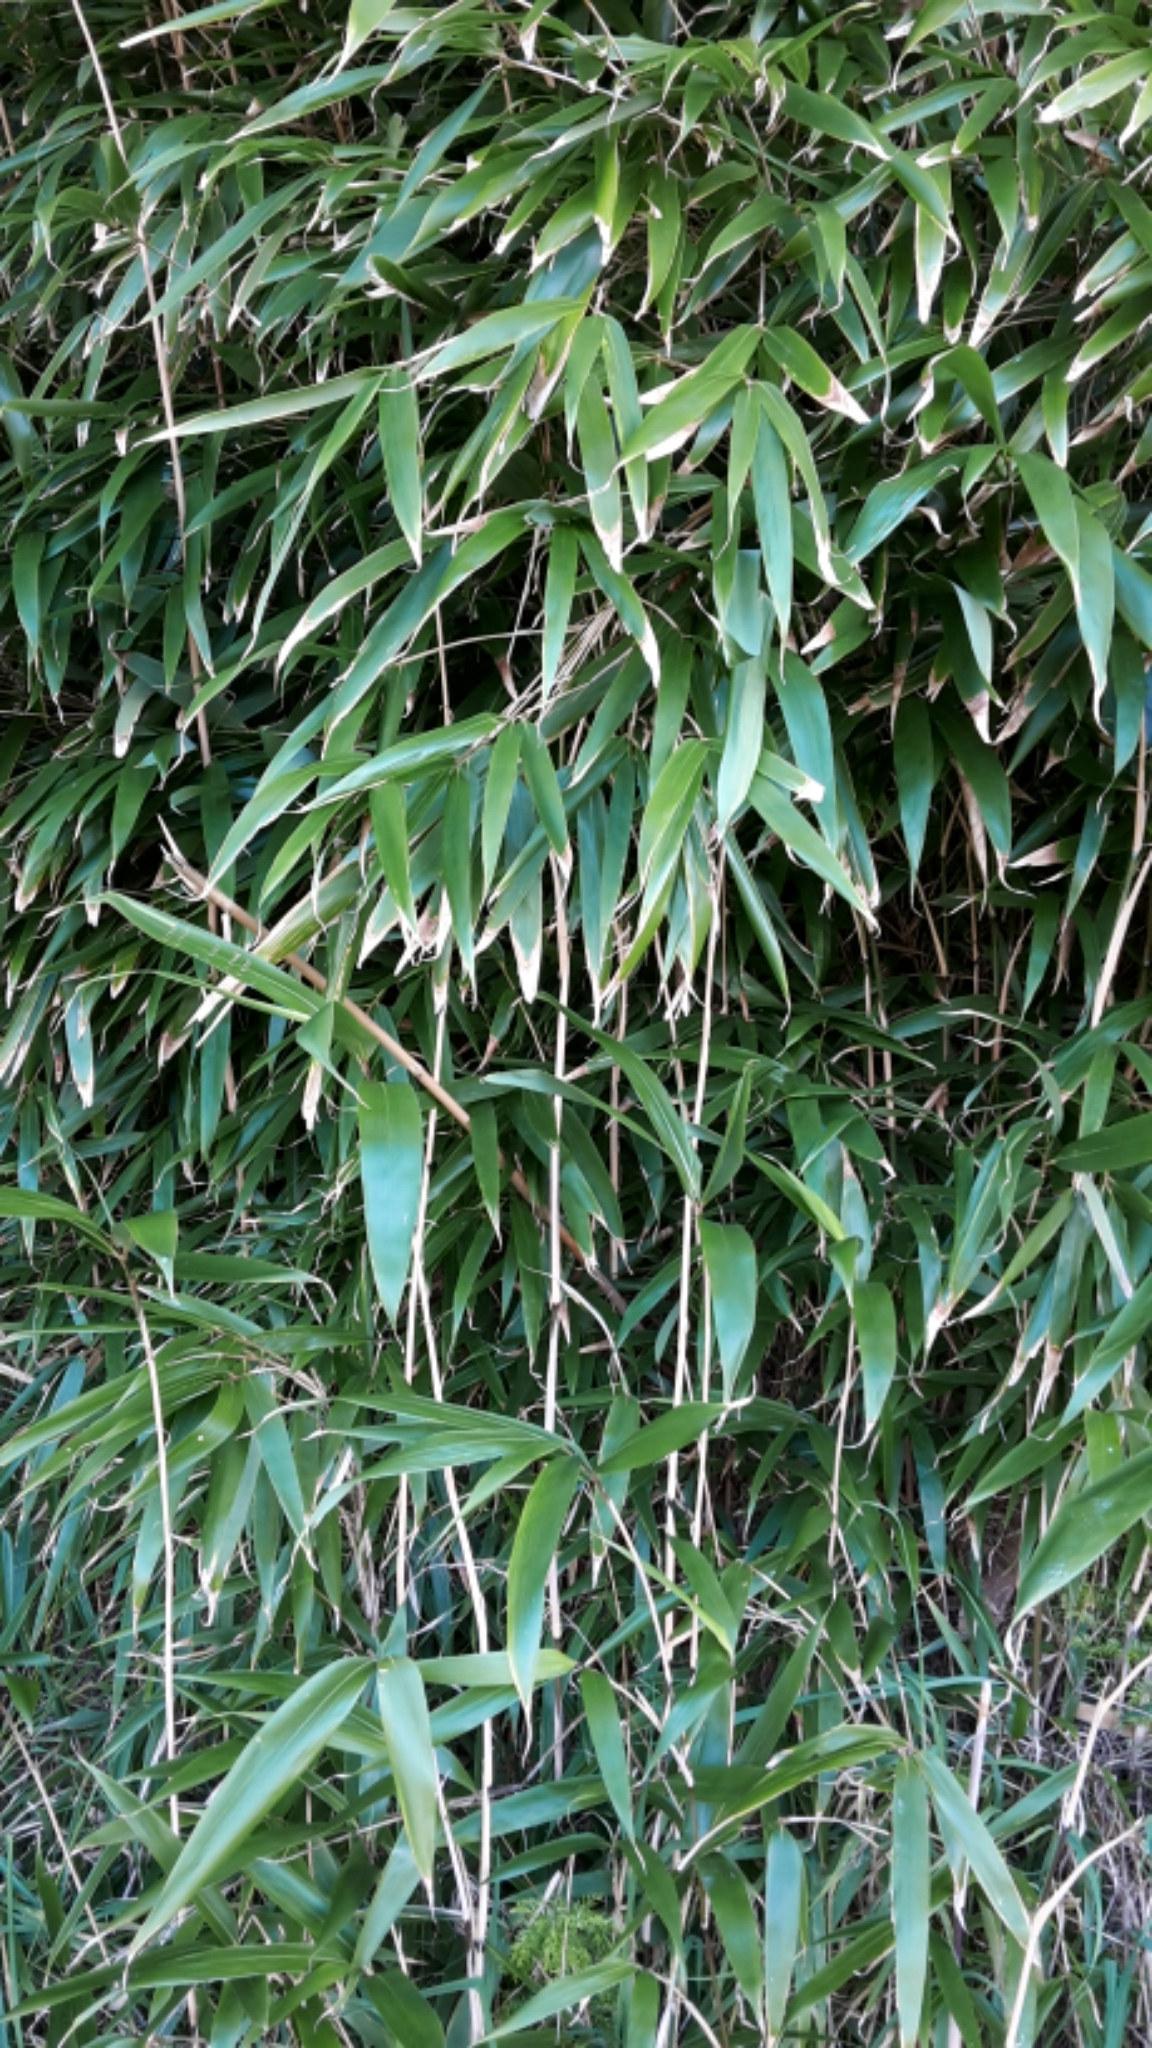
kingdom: Plantae
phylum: Tracheophyta
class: Liliopsida
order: Poales
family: Poaceae
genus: Pseudosasa
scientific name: Pseudosasa japonica
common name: Arrow bamboo
